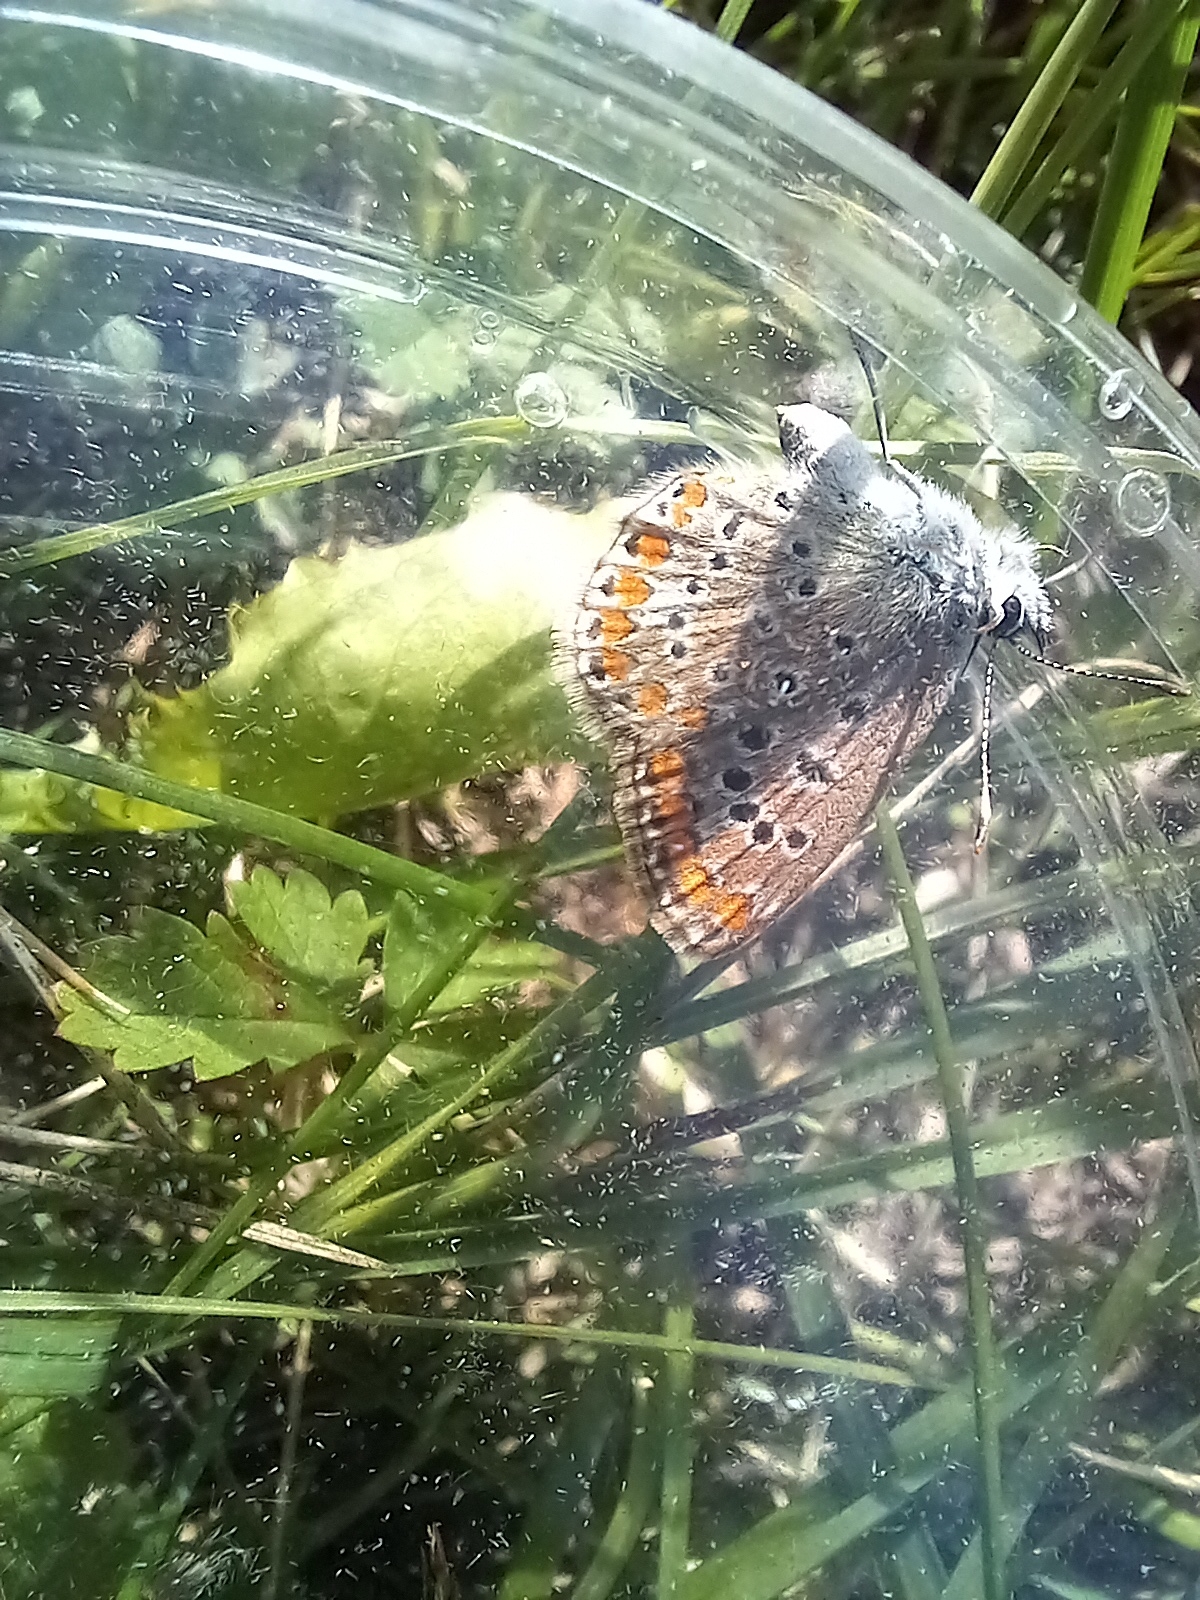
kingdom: Animalia
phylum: Arthropoda
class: Insecta
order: Lepidoptera
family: Lycaenidae
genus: Polyommatus
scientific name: Polyommatus icarus
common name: Common blue
